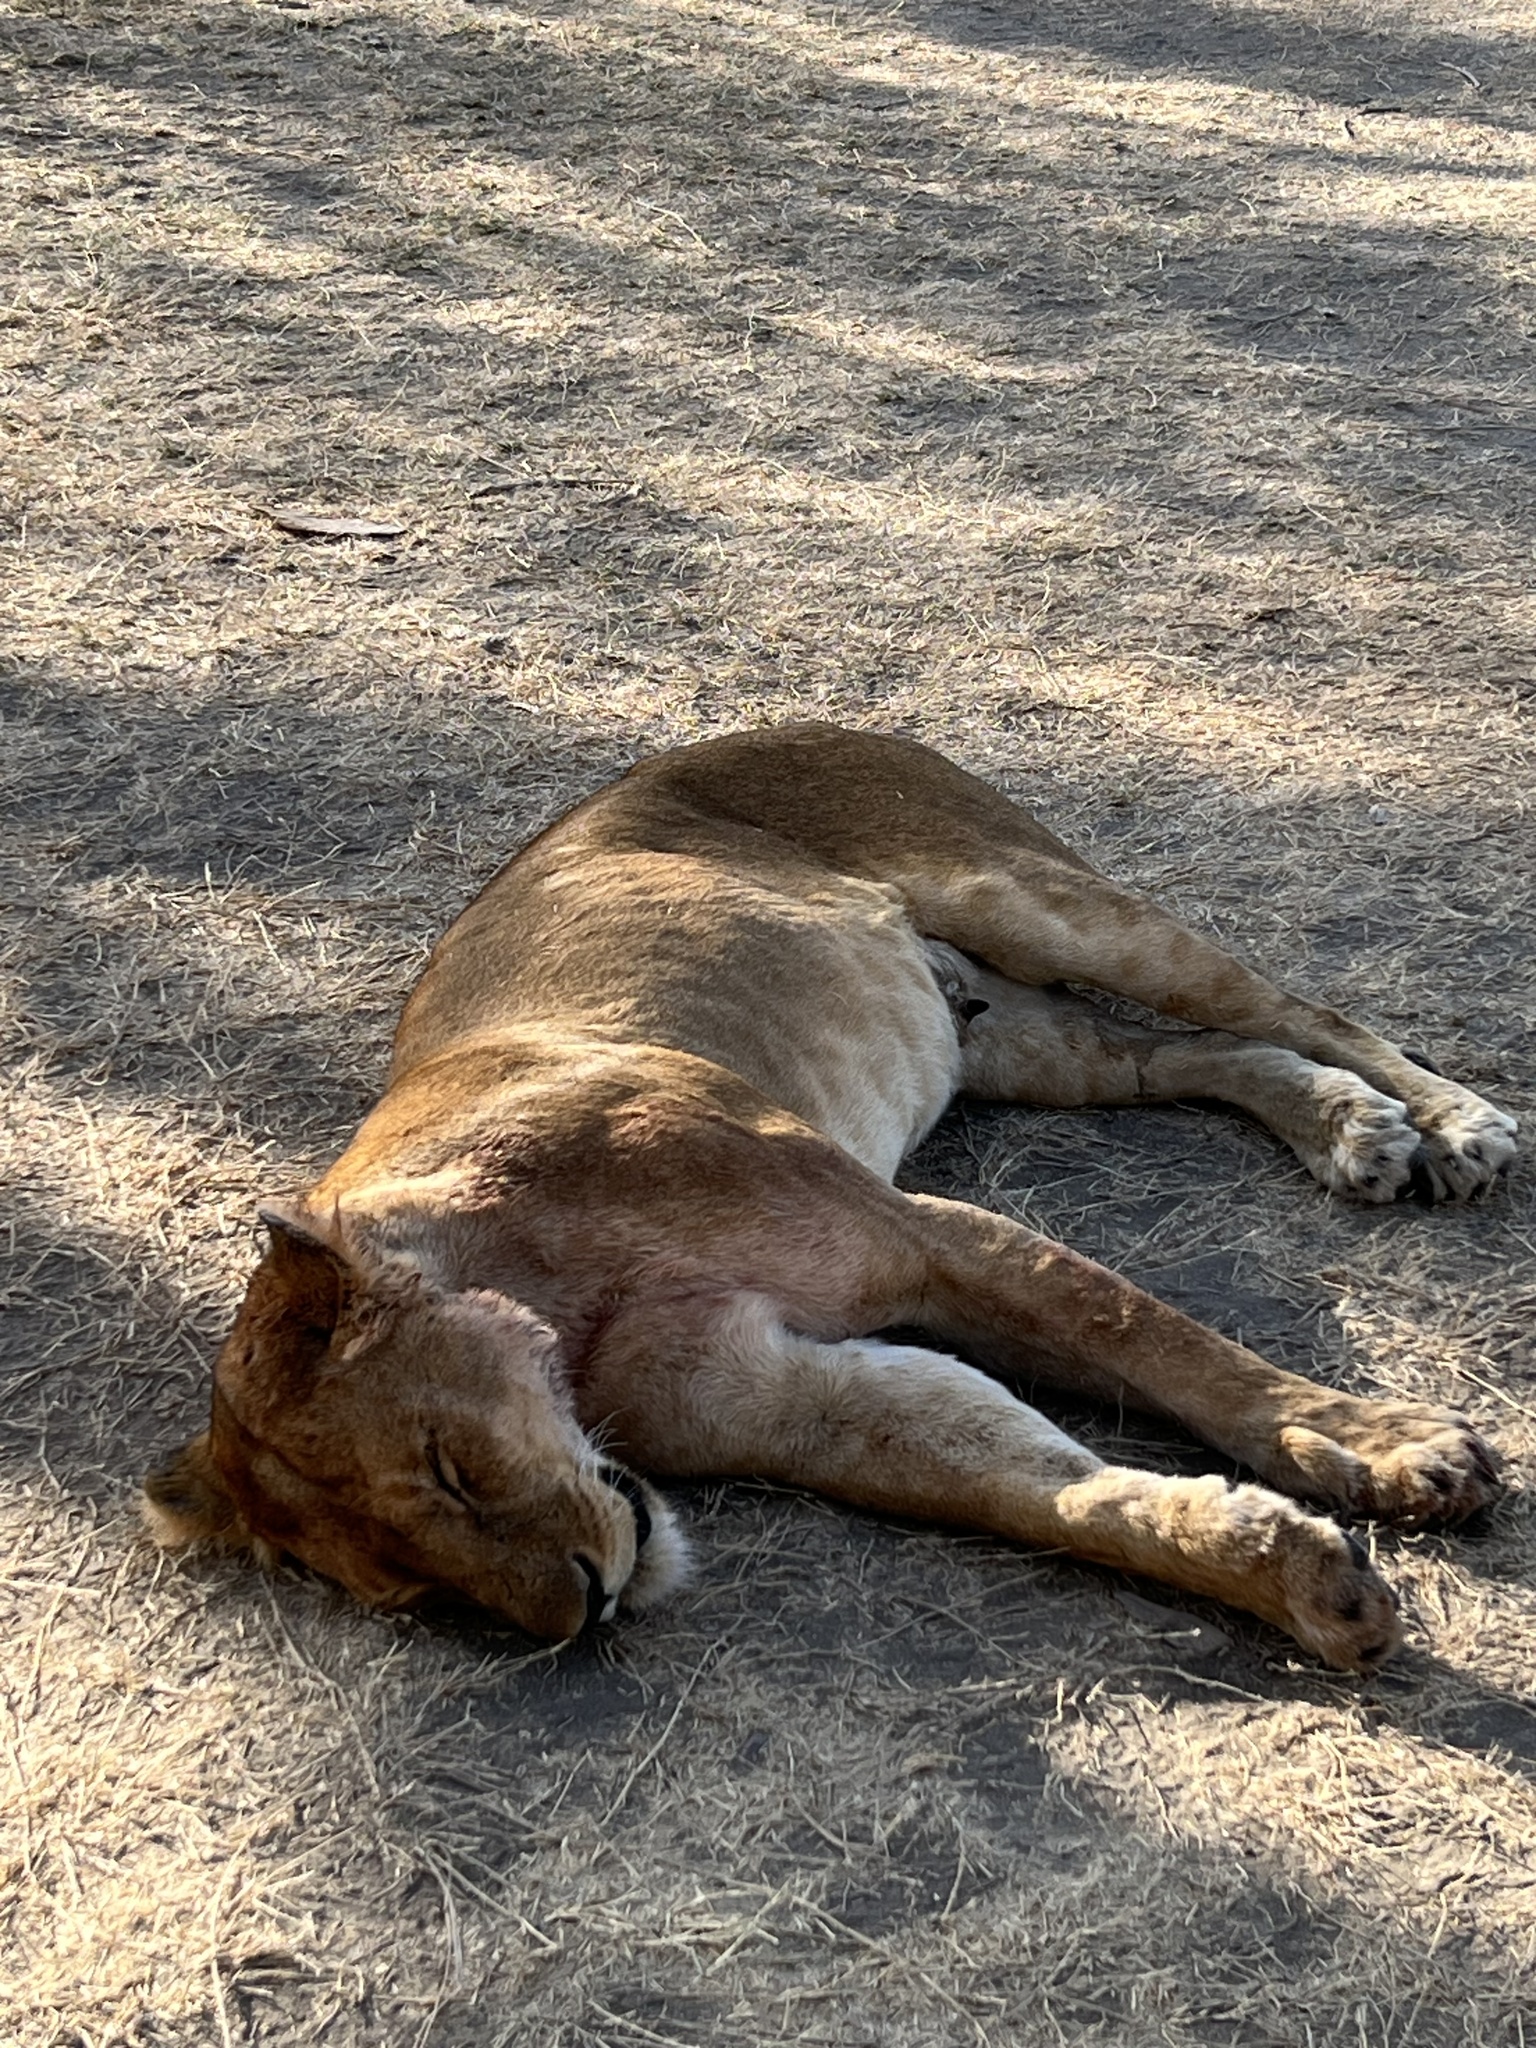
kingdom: Animalia
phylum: Chordata
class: Mammalia
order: Carnivora
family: Felidae
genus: Panthera
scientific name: Panthera leo
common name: Lion
